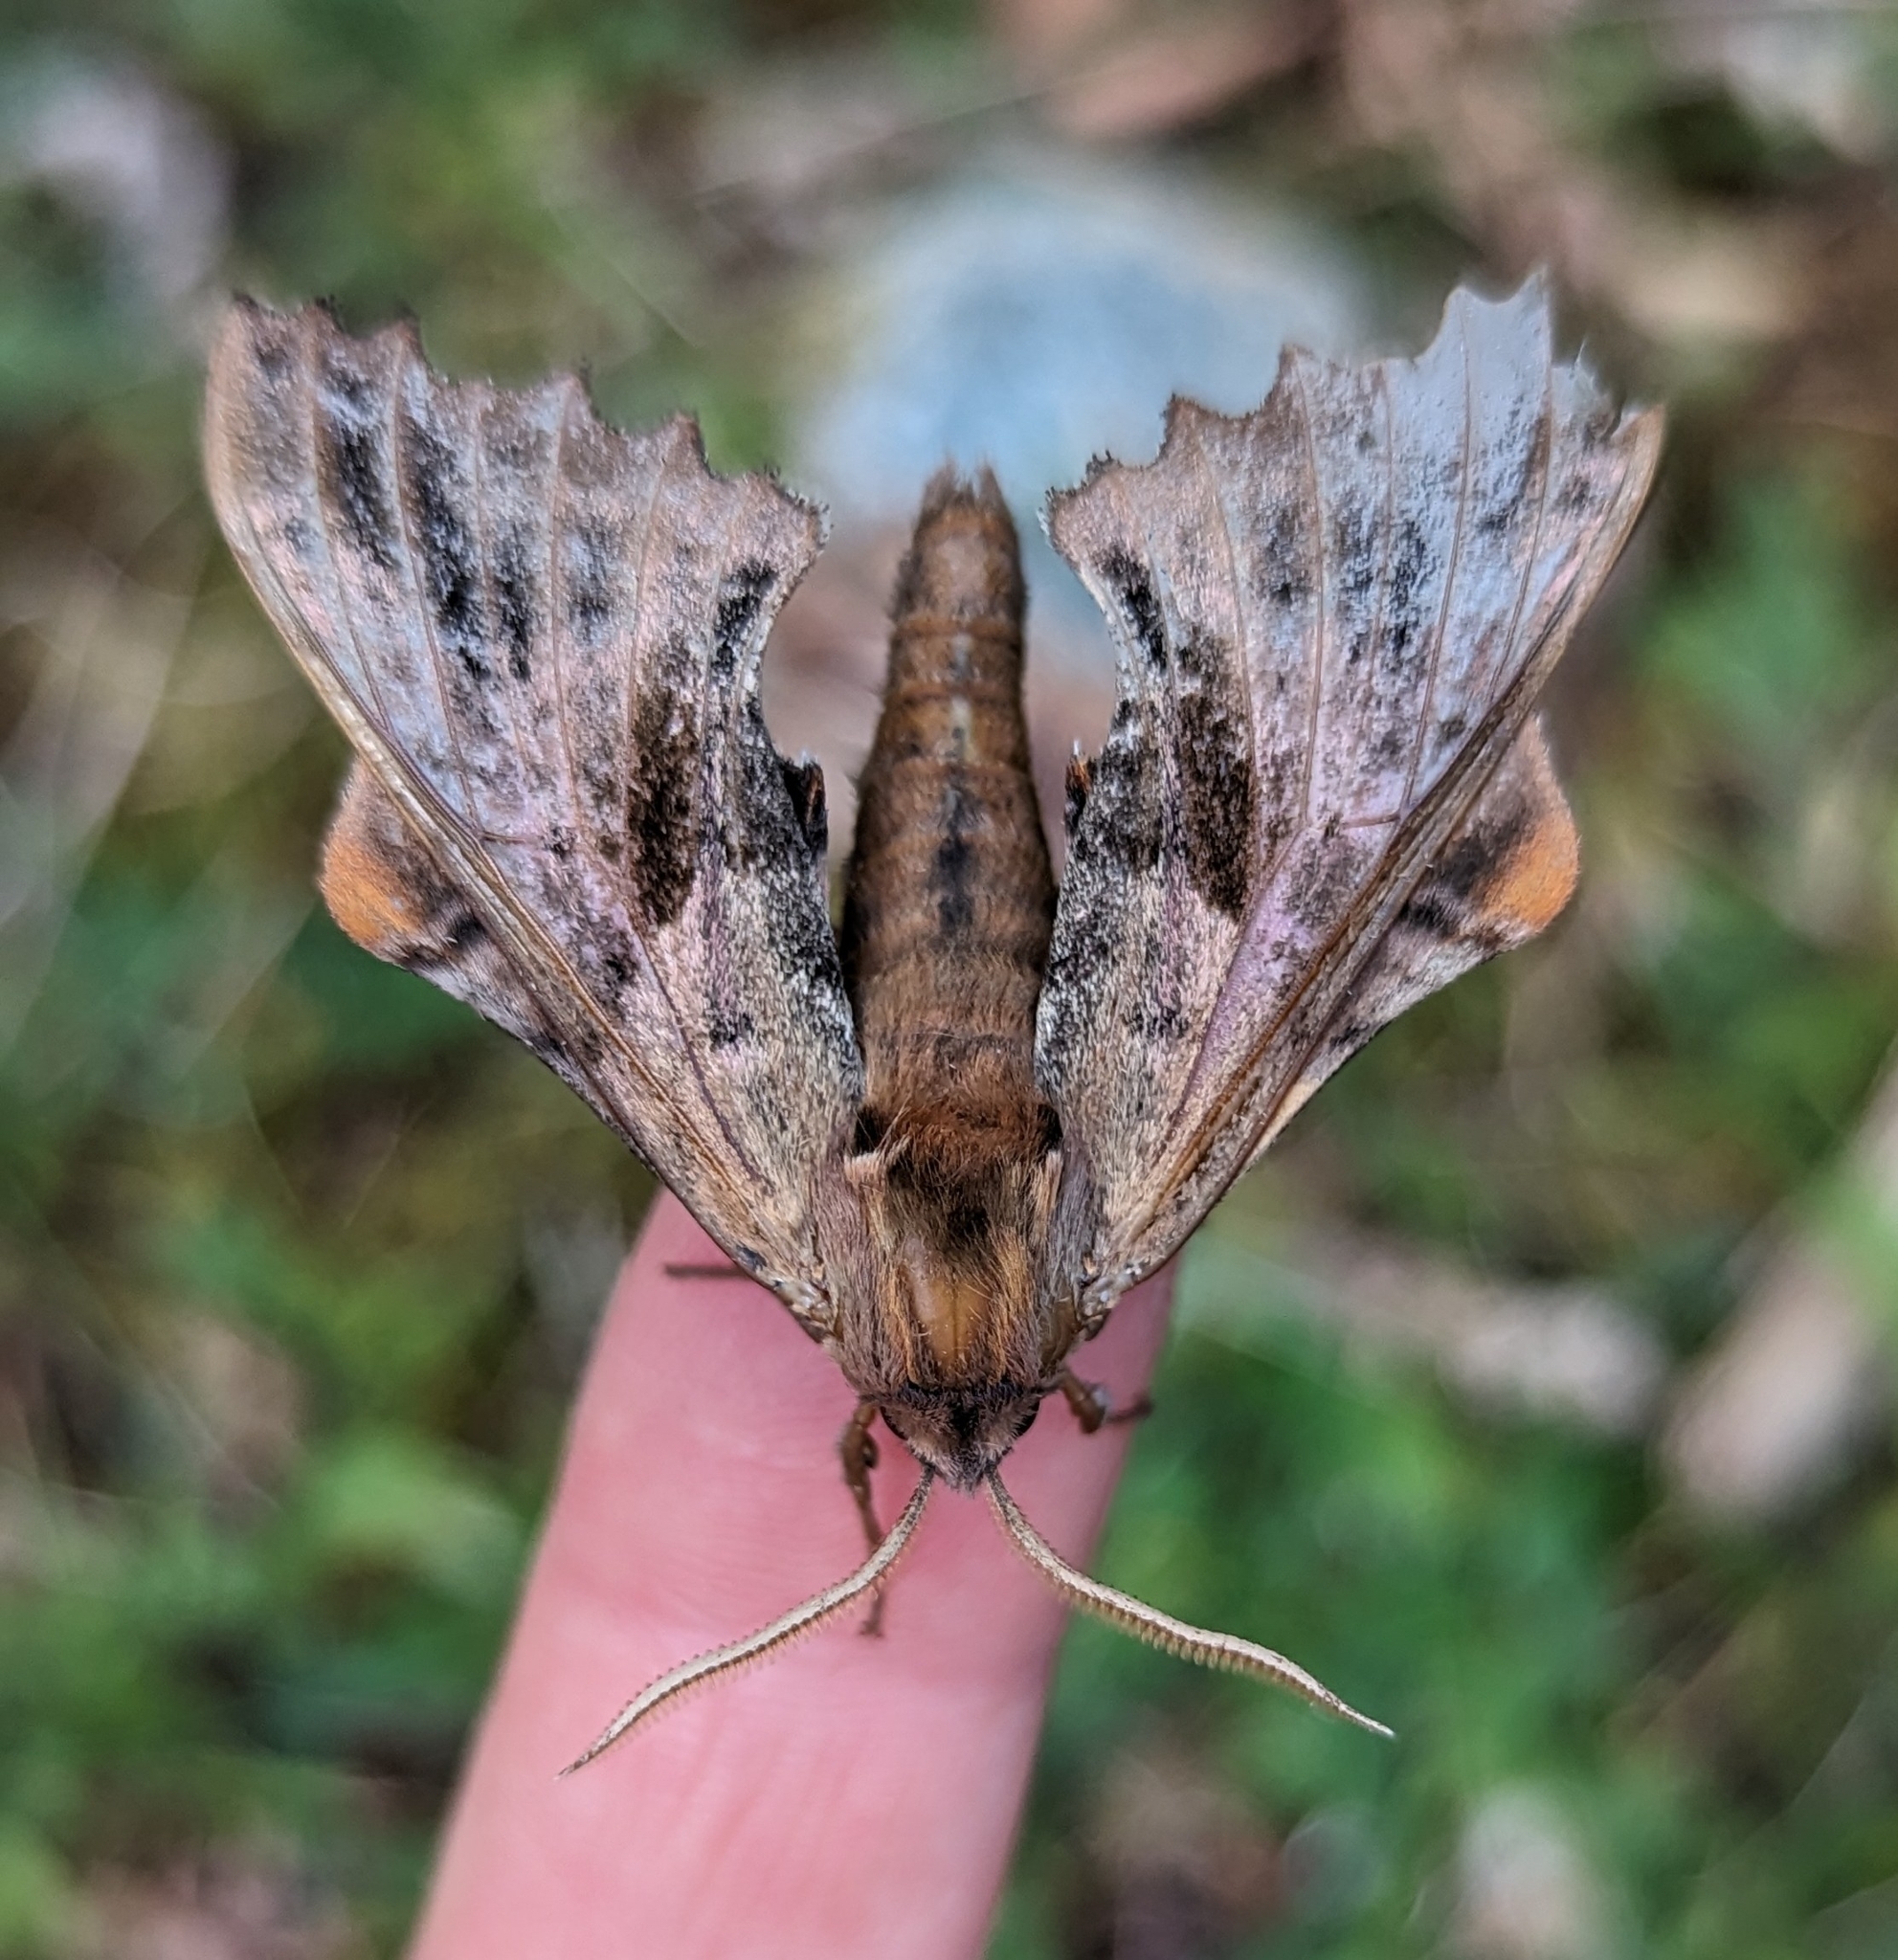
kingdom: Animalia
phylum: Arthropoda
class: Insecta
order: Lepidoptera
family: Sphingidae
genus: Paonias
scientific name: Paonias excaecata
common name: Blind-eyed sphinx
